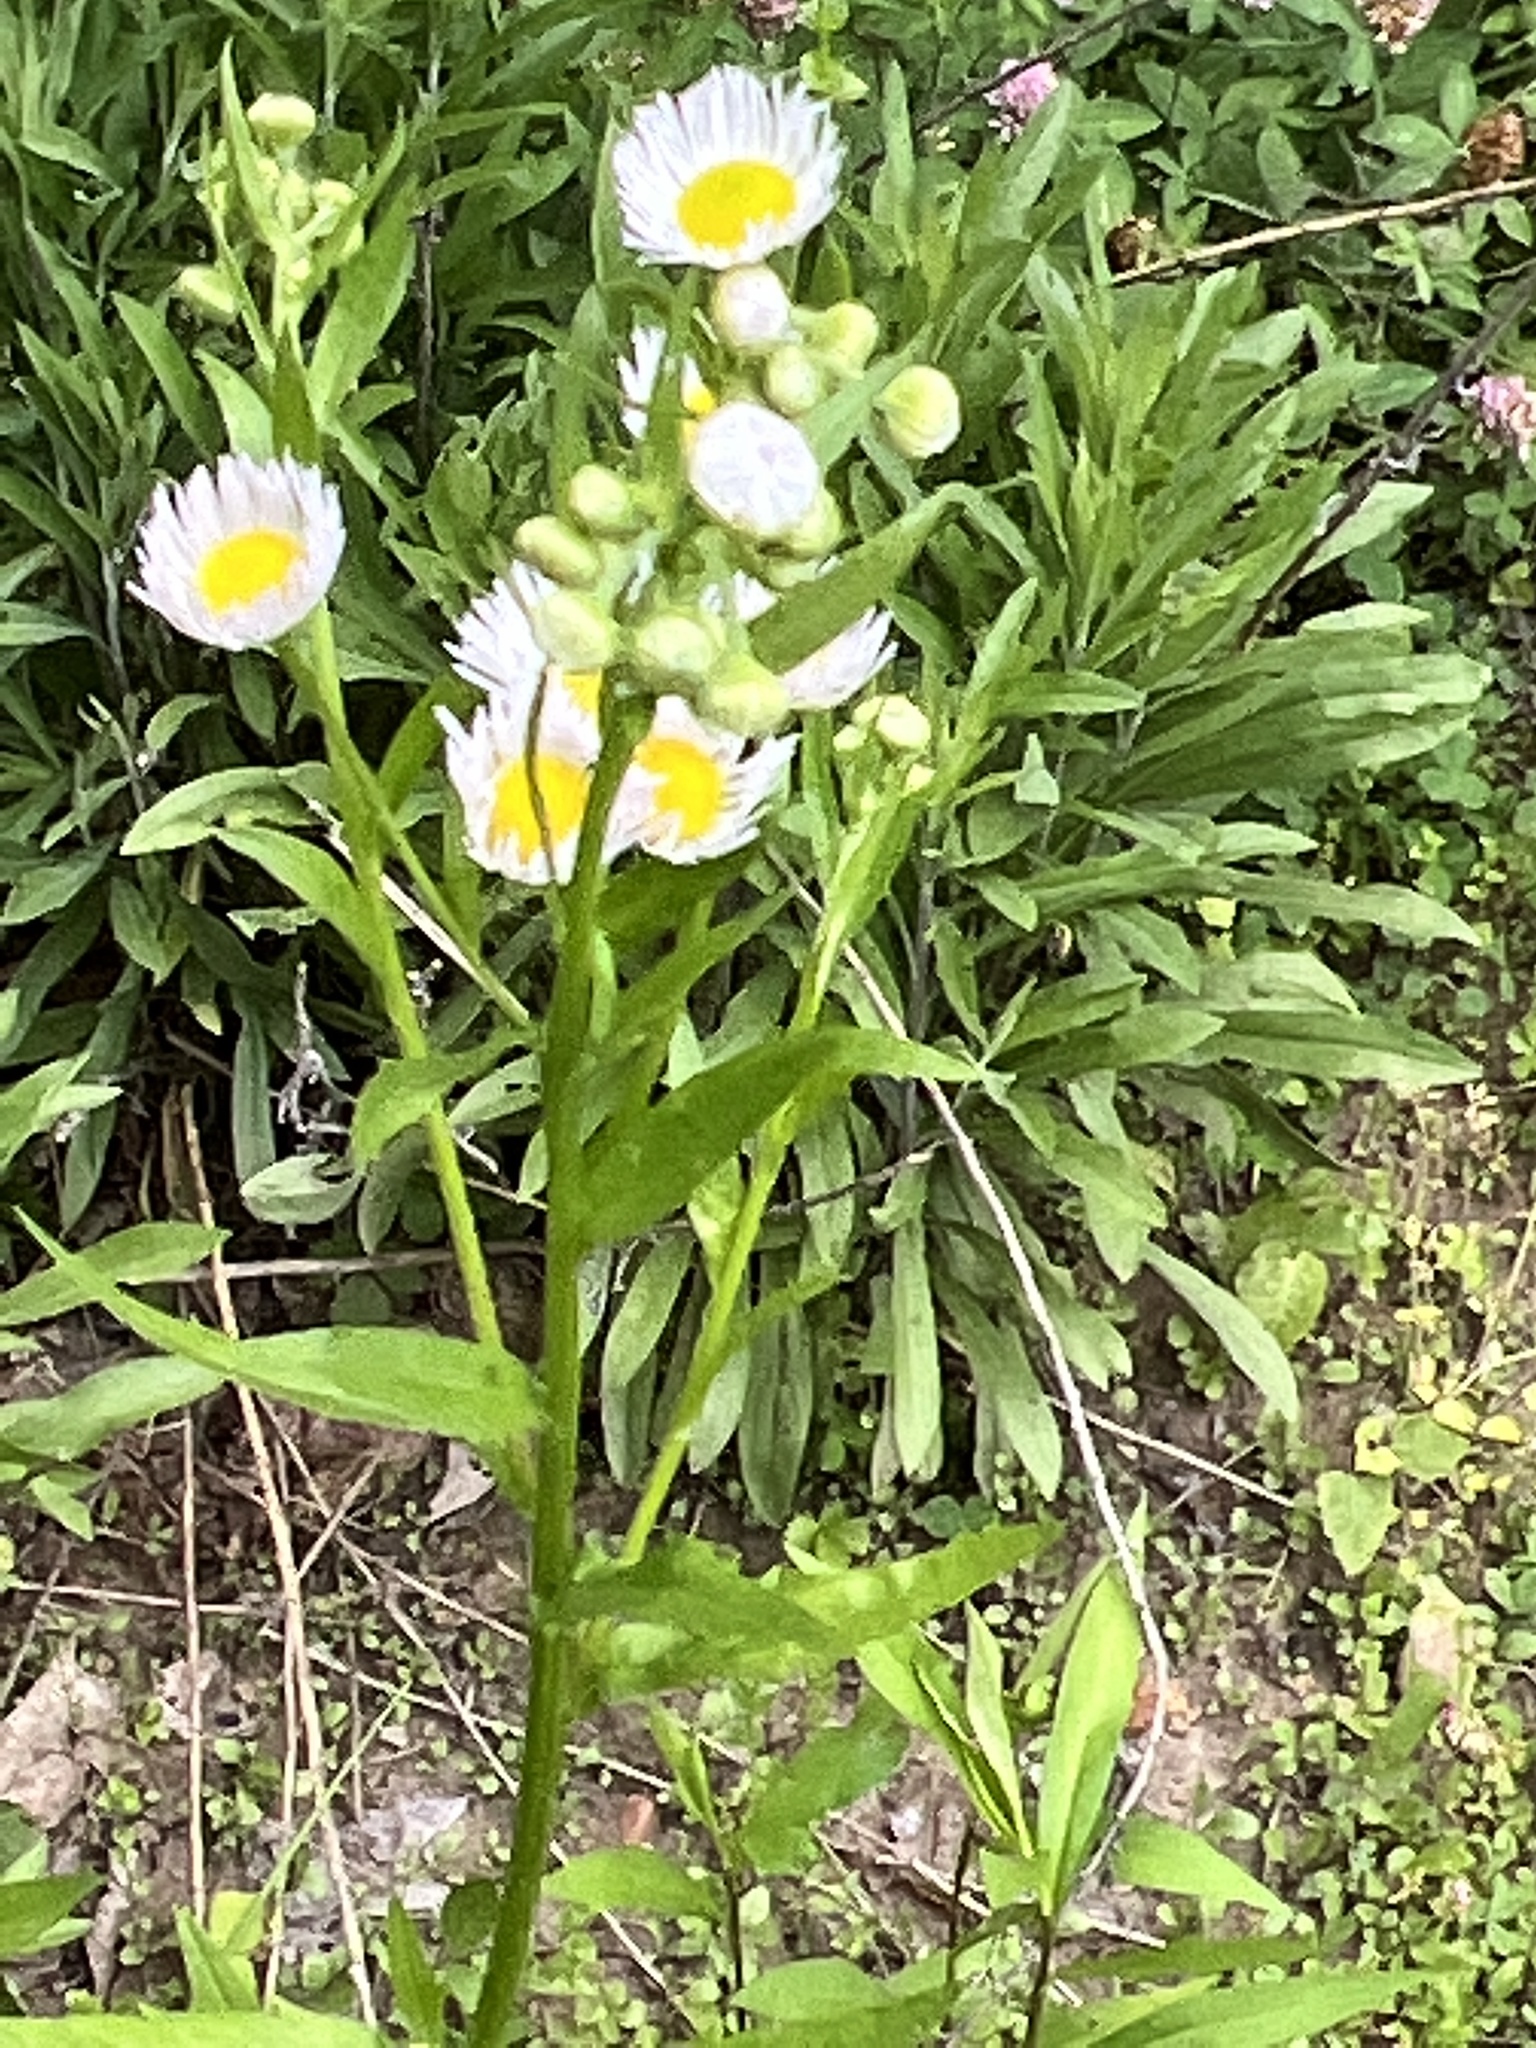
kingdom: Plantae
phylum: Tracheophyta
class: Magnoliopsida
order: Asterales
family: Asteraceae
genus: Erigeron
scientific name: Erigeron annuus
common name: Tall fleabane
